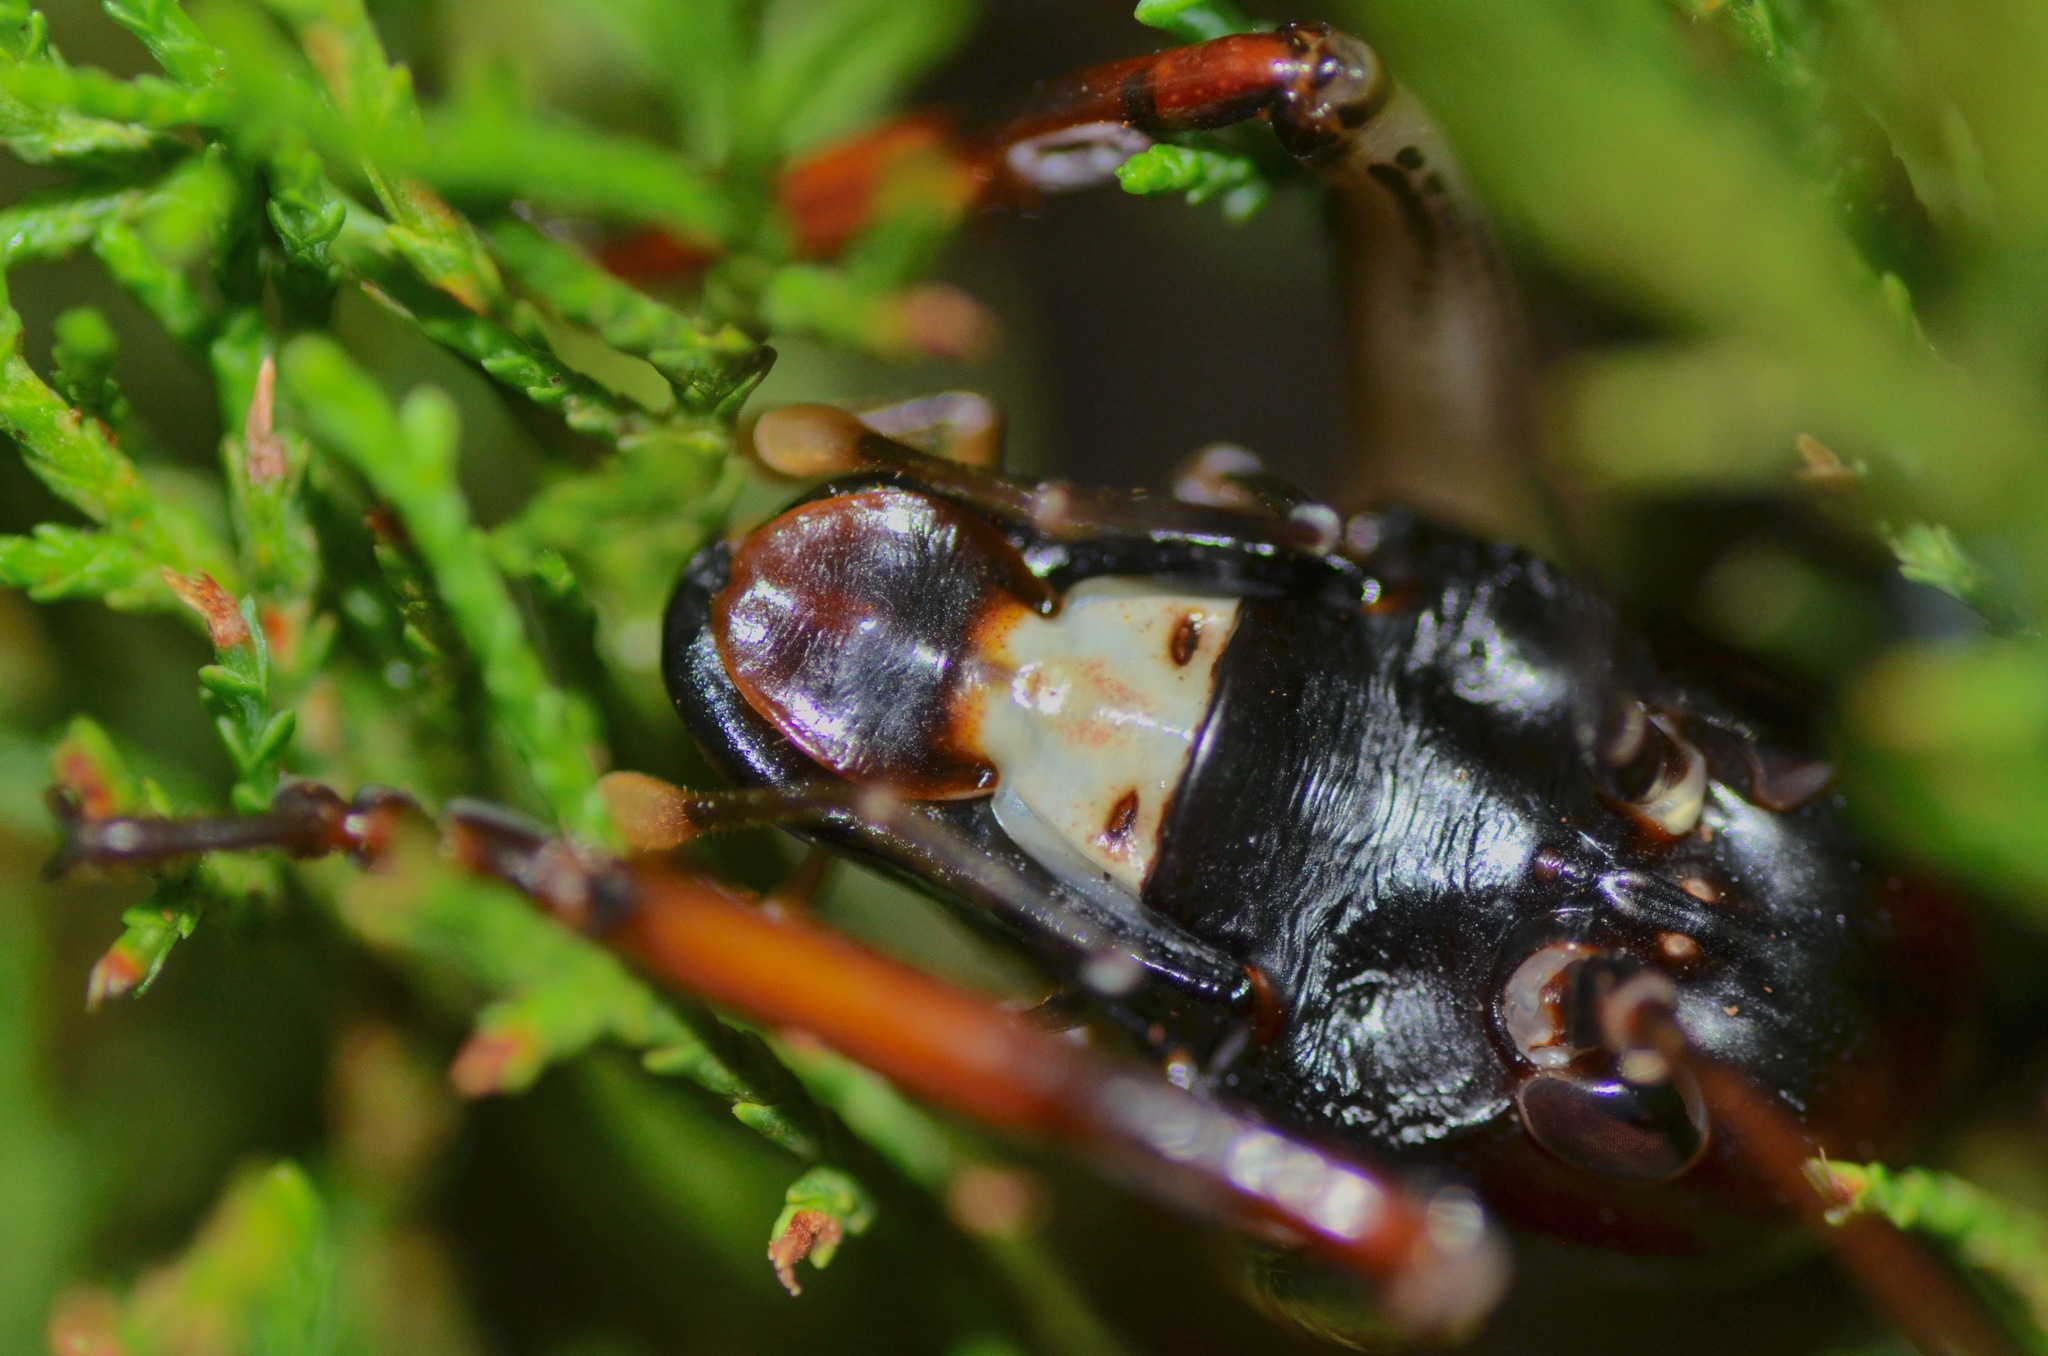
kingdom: Animalia
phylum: Arthropoda
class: Insecta
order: Orthoptera
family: Anostostomatidae
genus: Hemideina
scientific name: Hemideina thoracica
